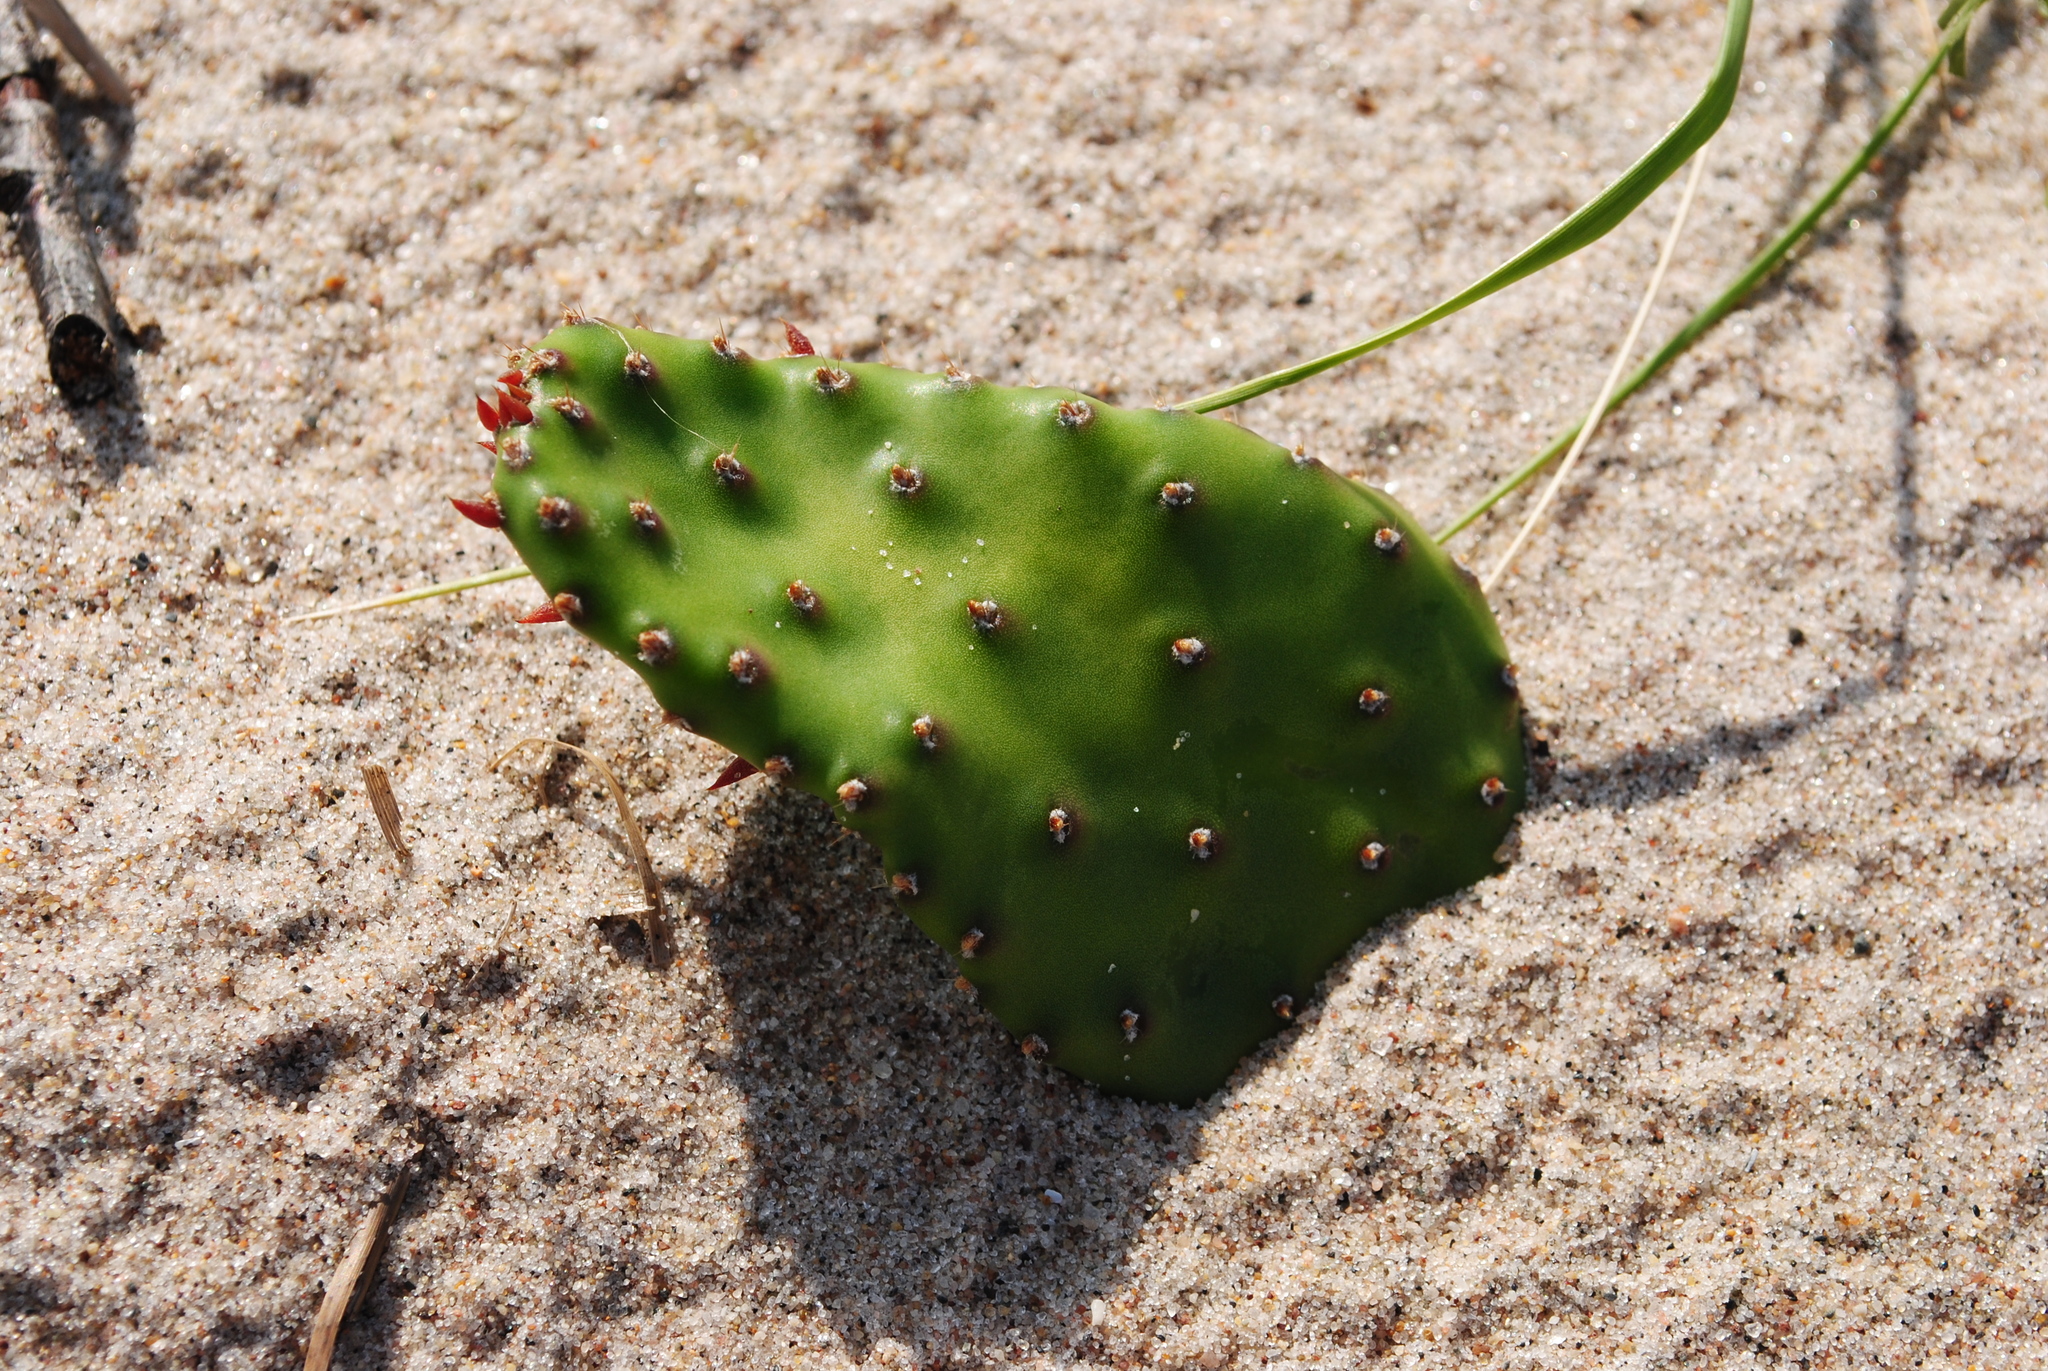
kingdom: Plantae
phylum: Tracheophyta
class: Magnoliopsida
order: Caryophyllales
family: Cactaceae
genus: Opuntia
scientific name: Opuntia humifusa
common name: Eastern prickly-pear
